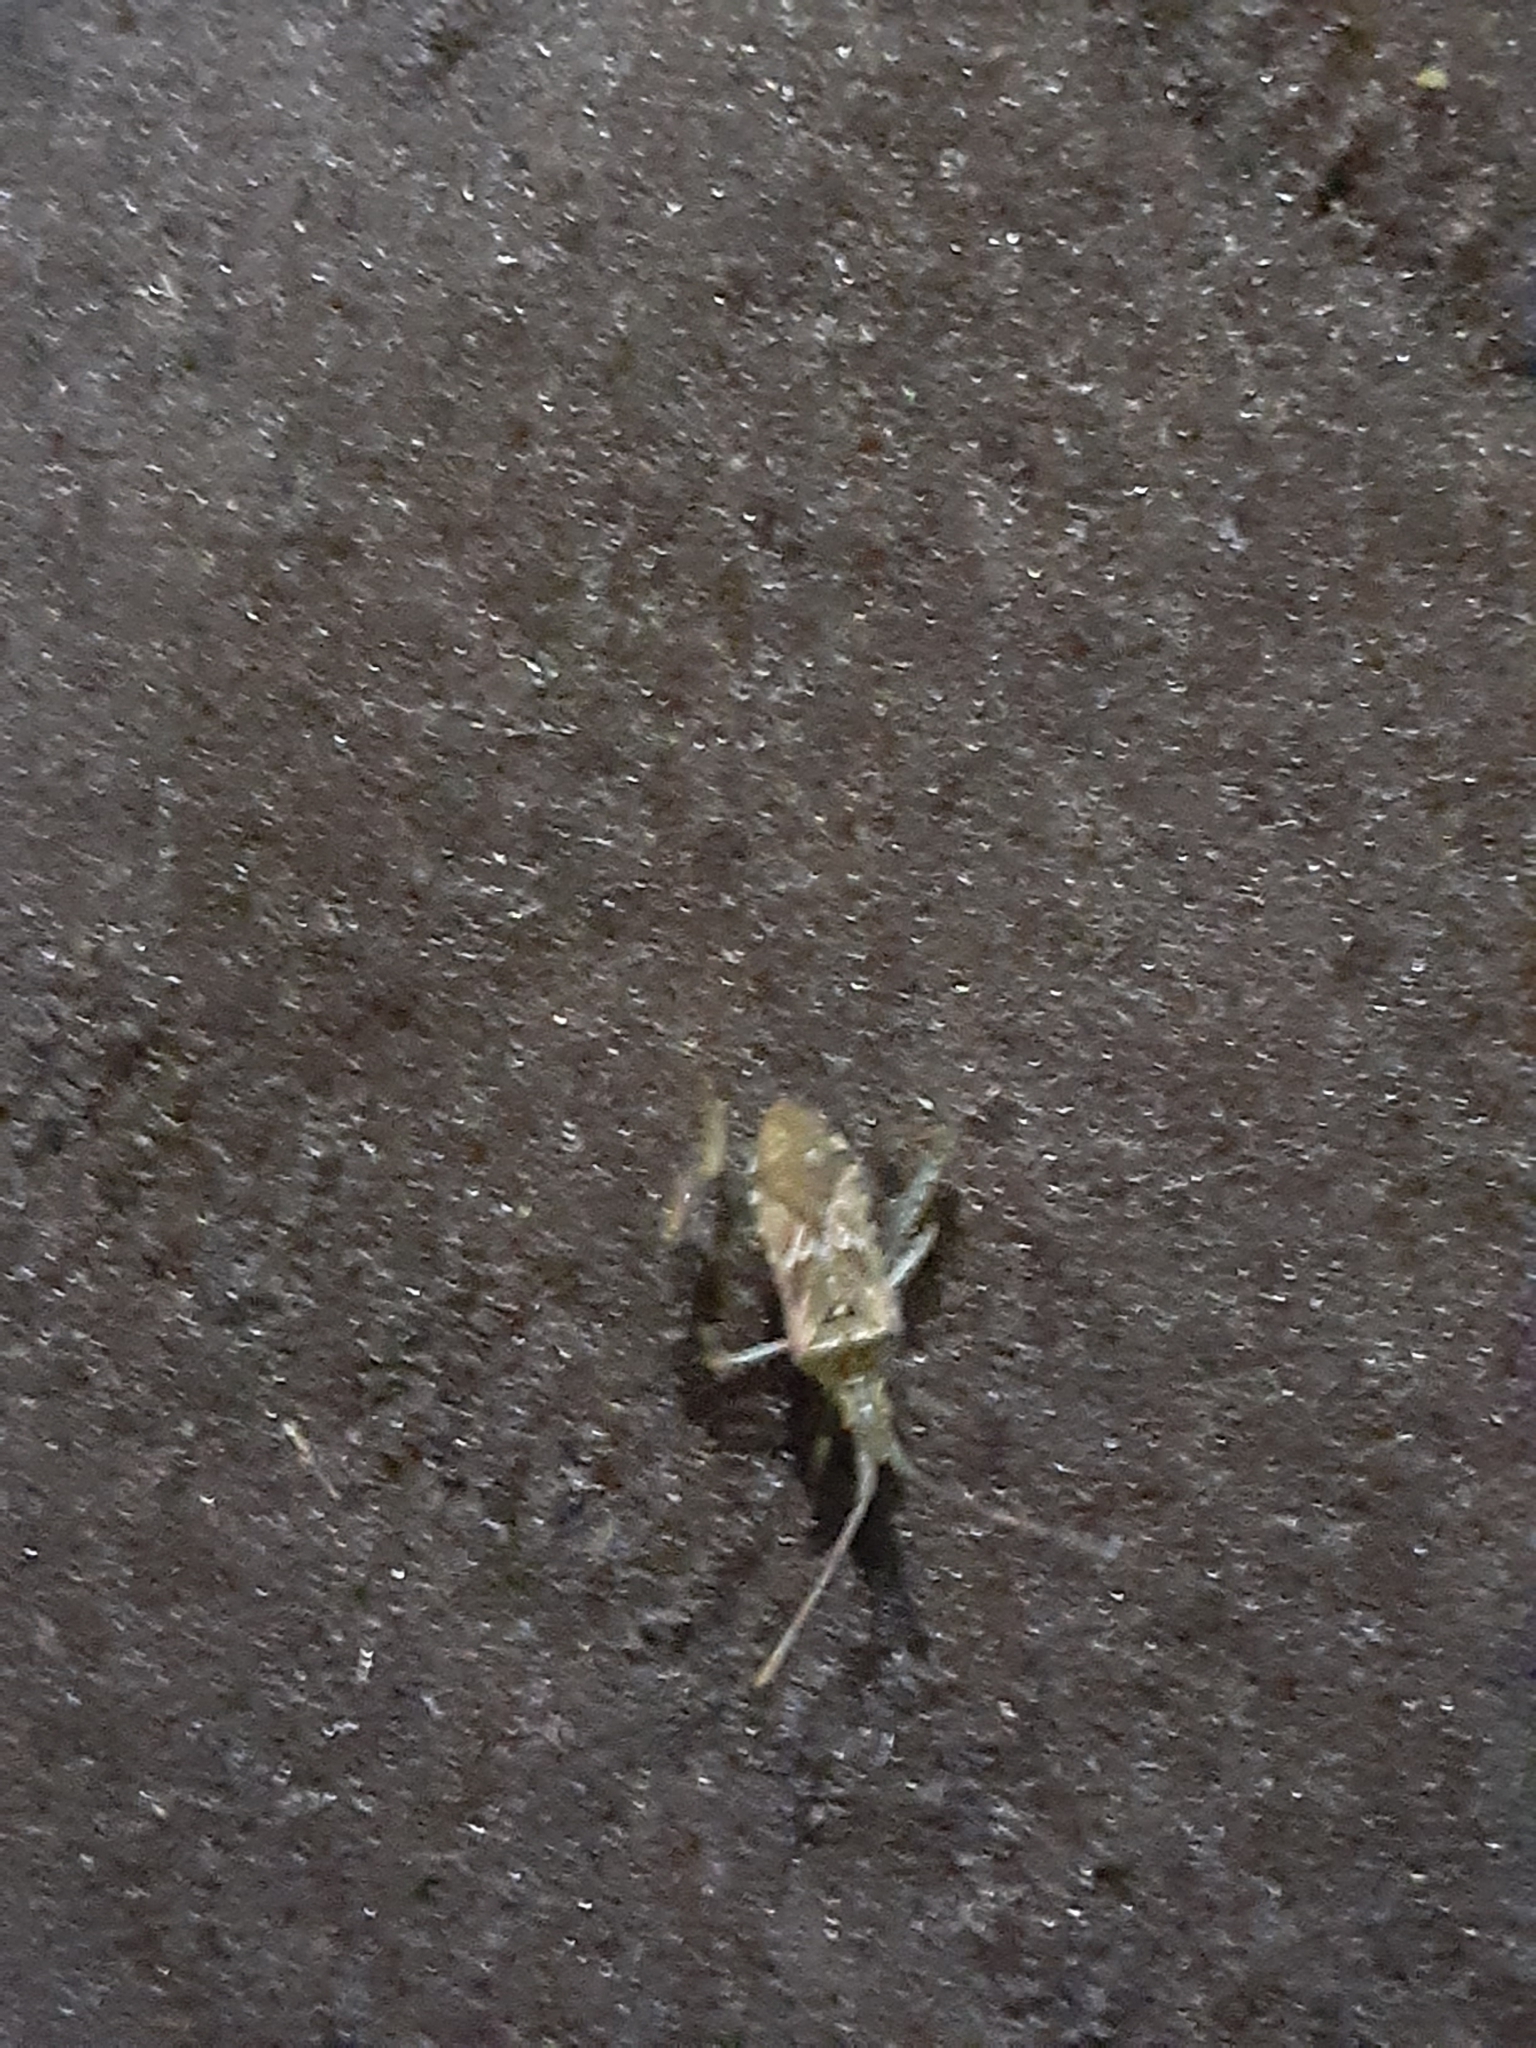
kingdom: Animalia
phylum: Arthropoda
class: Insecta
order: Hemiptera
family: Coreidae
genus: Leptoglossus
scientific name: Leptoglossus occidentalis
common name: Western conifer-seed bug
